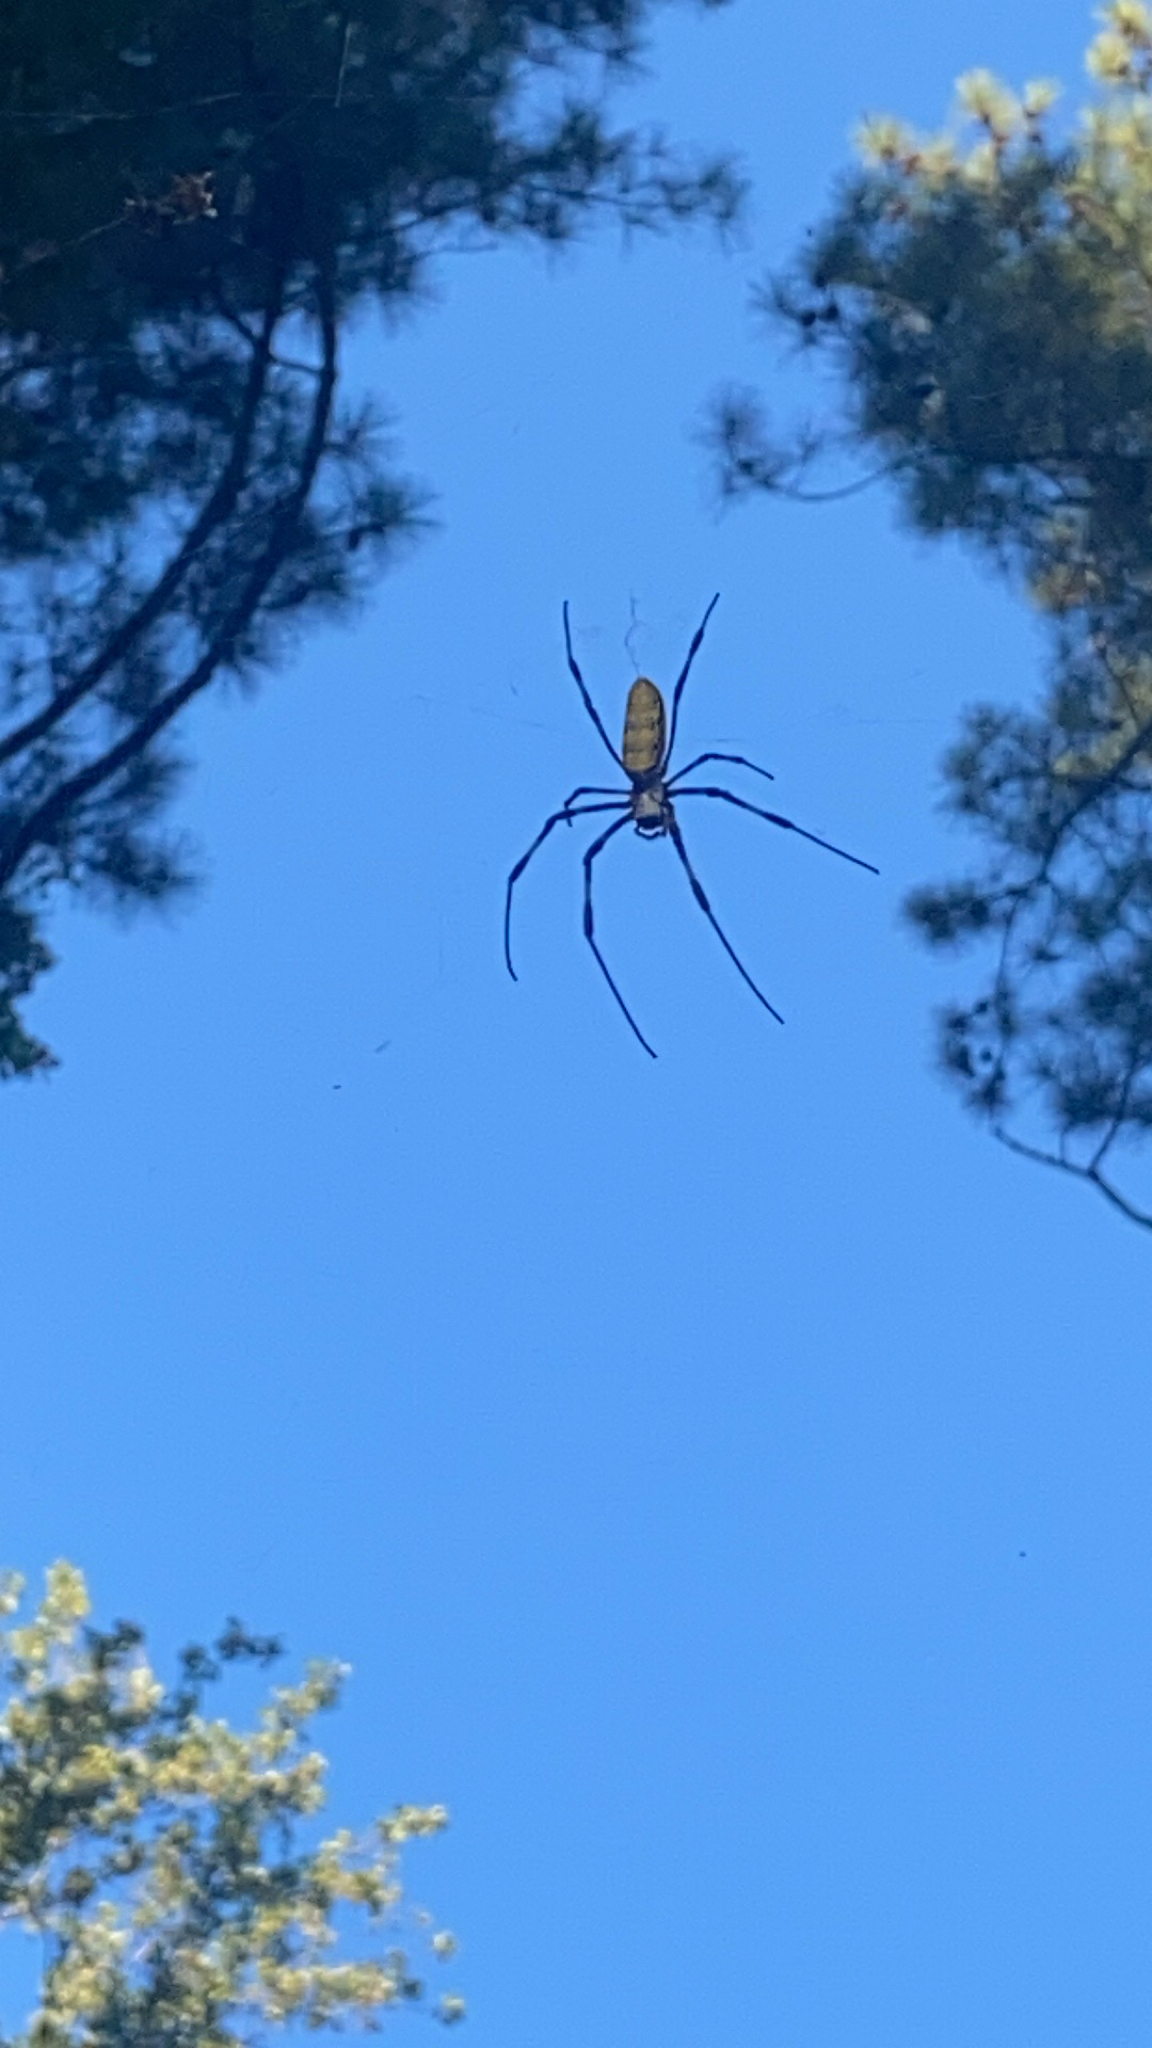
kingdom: Animalia
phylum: Arthropoda
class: Arachnida
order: Araneae
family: Araneidae
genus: Trichonephila
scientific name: Trichonephila clavata
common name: Jorō spider
